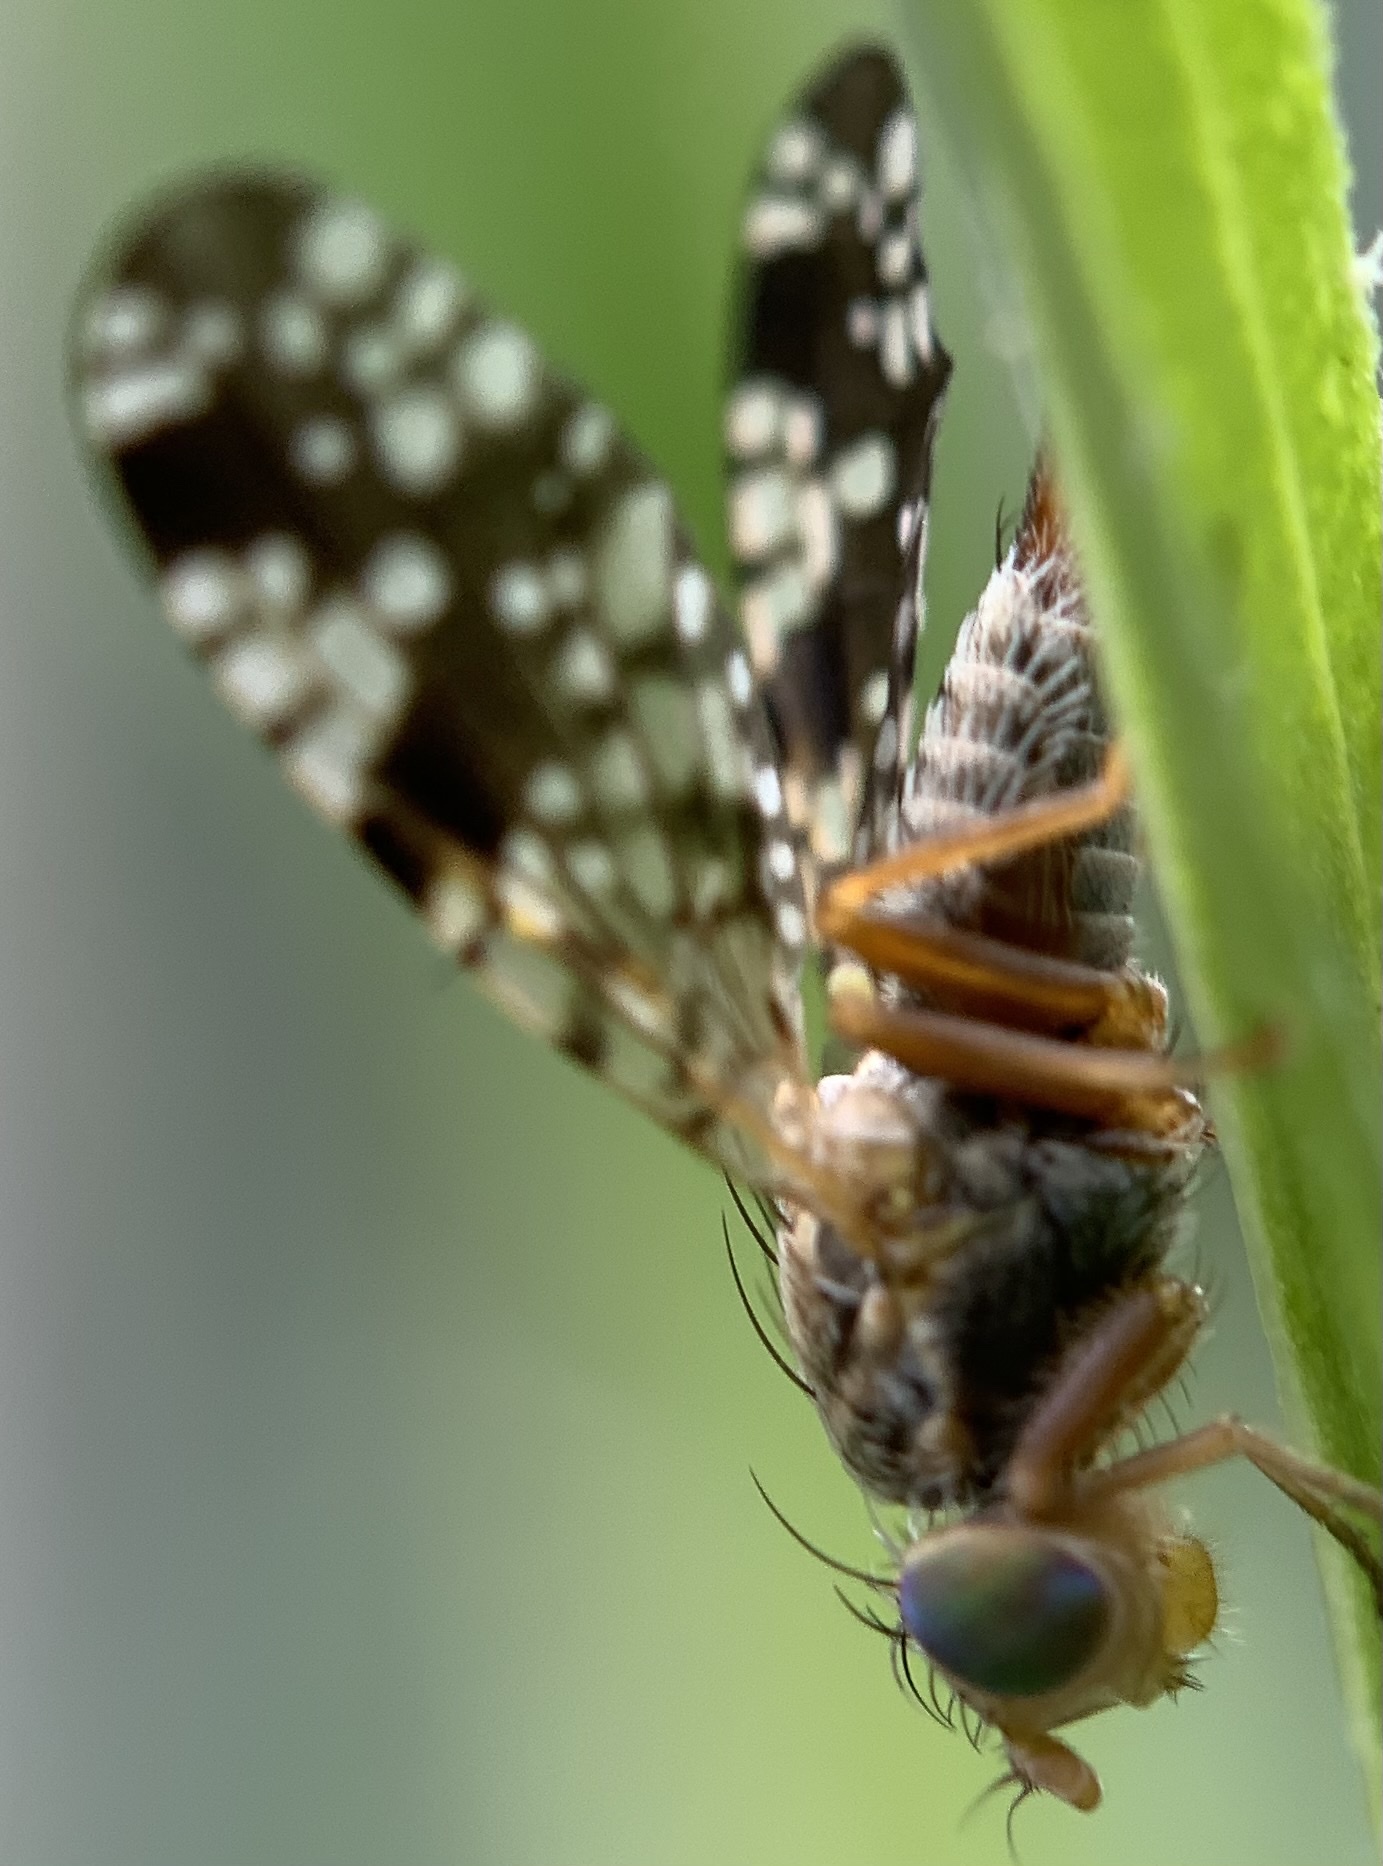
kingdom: Animalia
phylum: Arthropoda
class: Insecta
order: Diptera
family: Tephritidae
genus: Neotephritis
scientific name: Neotephritis finalis
